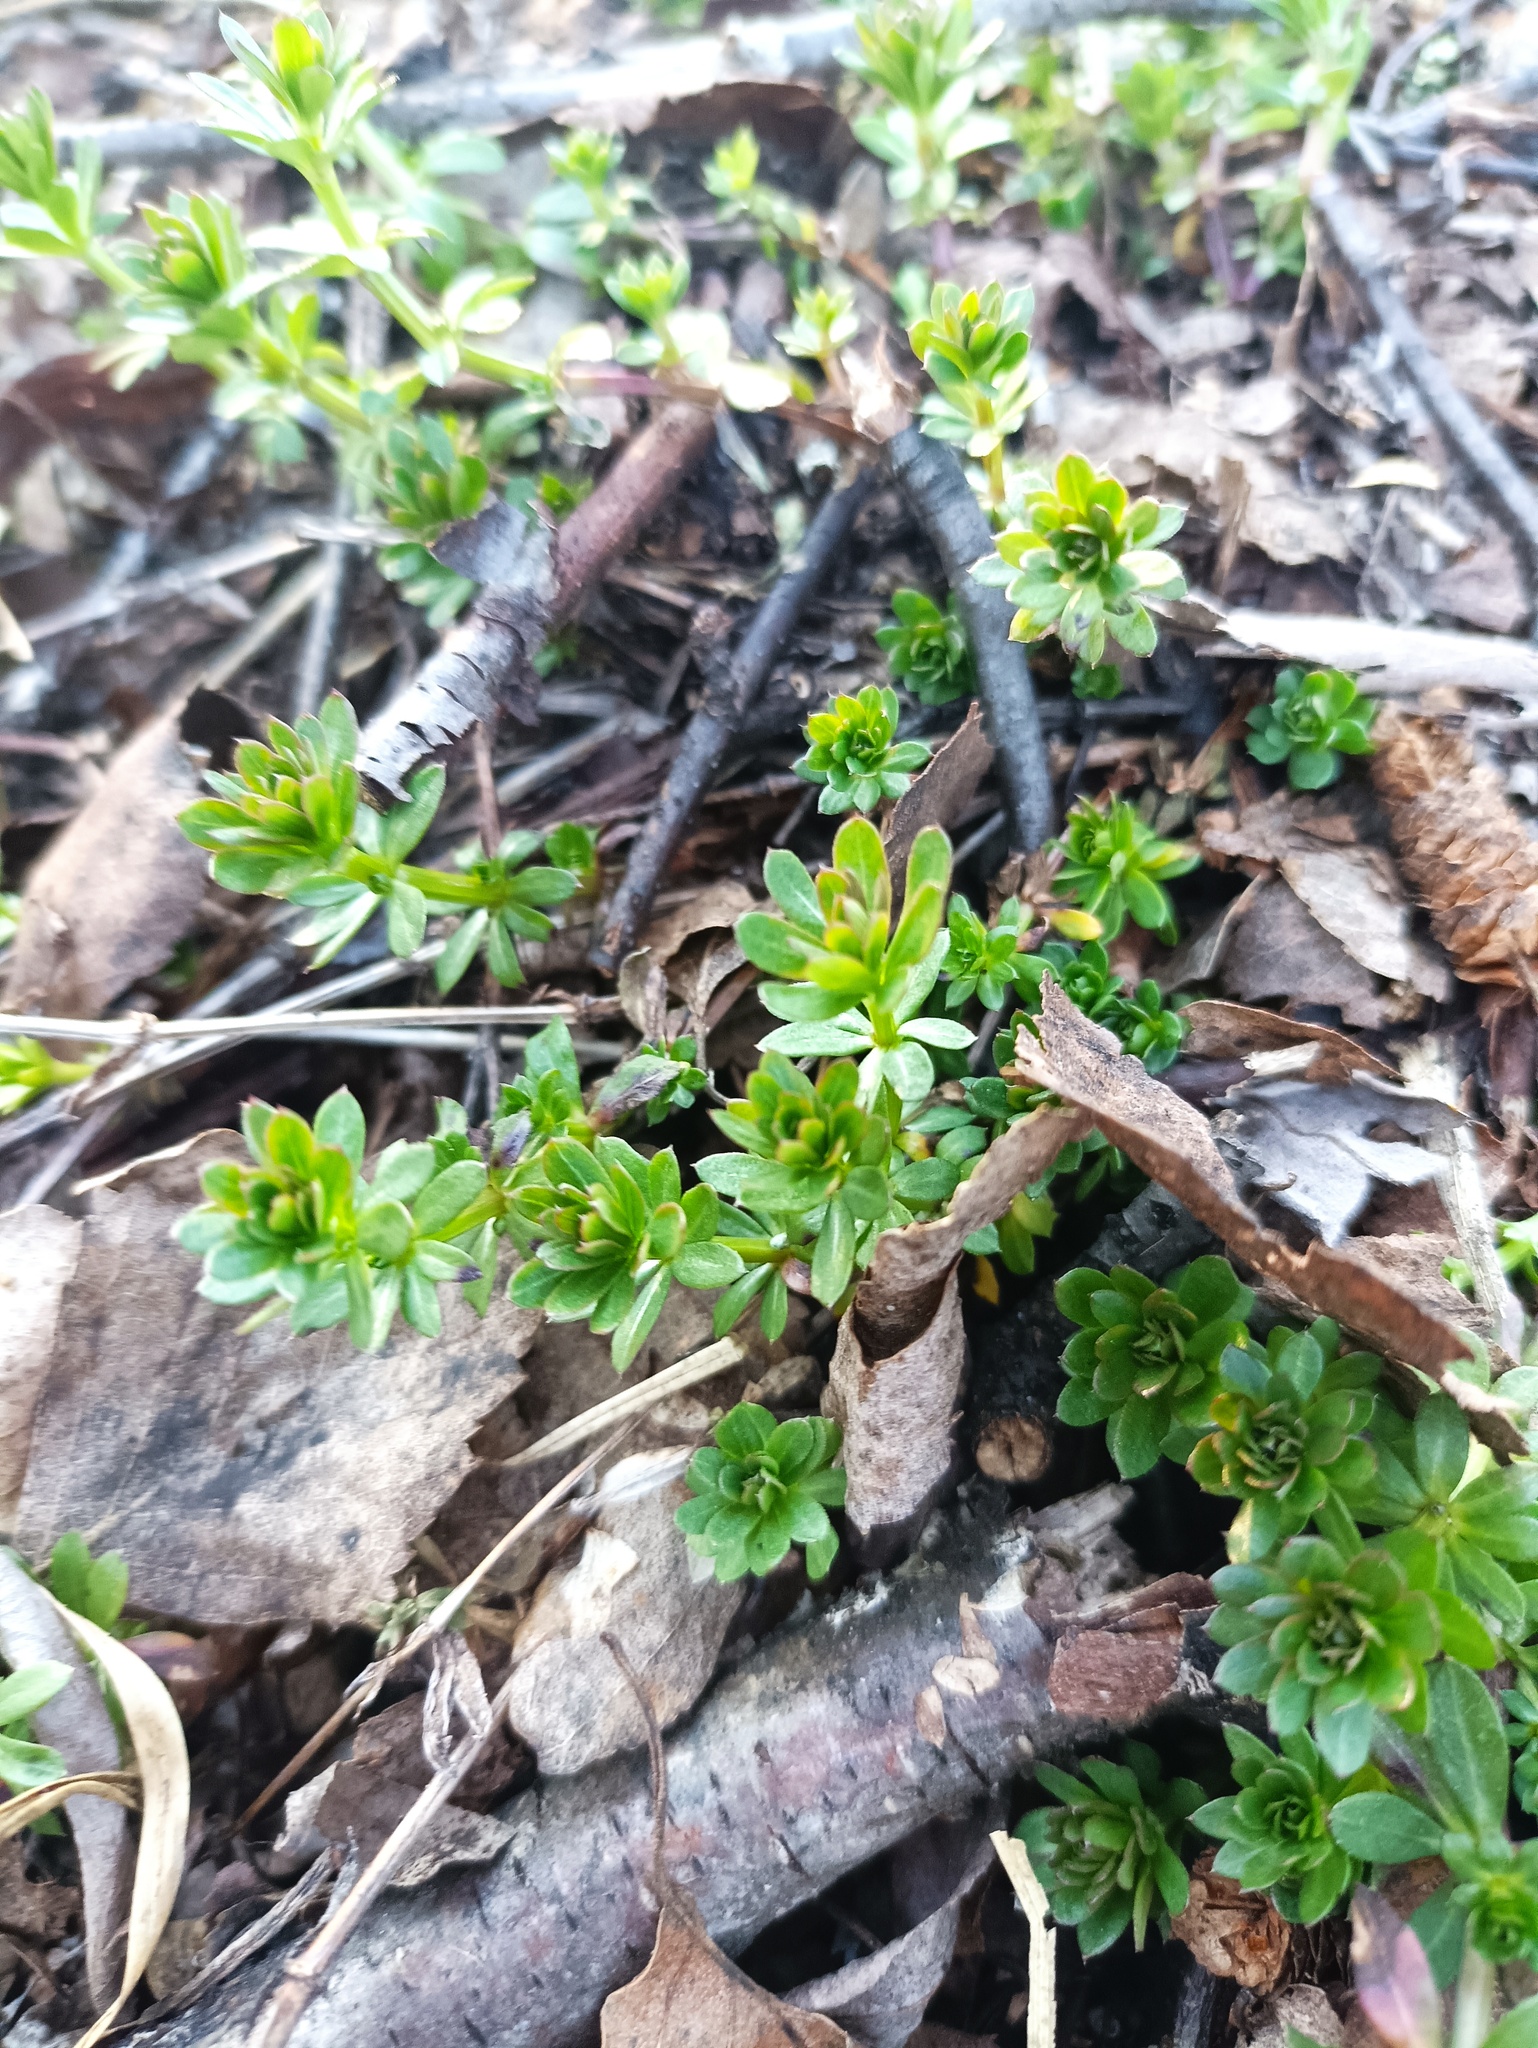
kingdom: Plantae
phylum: Tracheophyta
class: Magnoliopsida
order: Gentianales
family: Rubiaceae
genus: Galium
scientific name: Galium mollugo
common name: Hedge bedstraw
